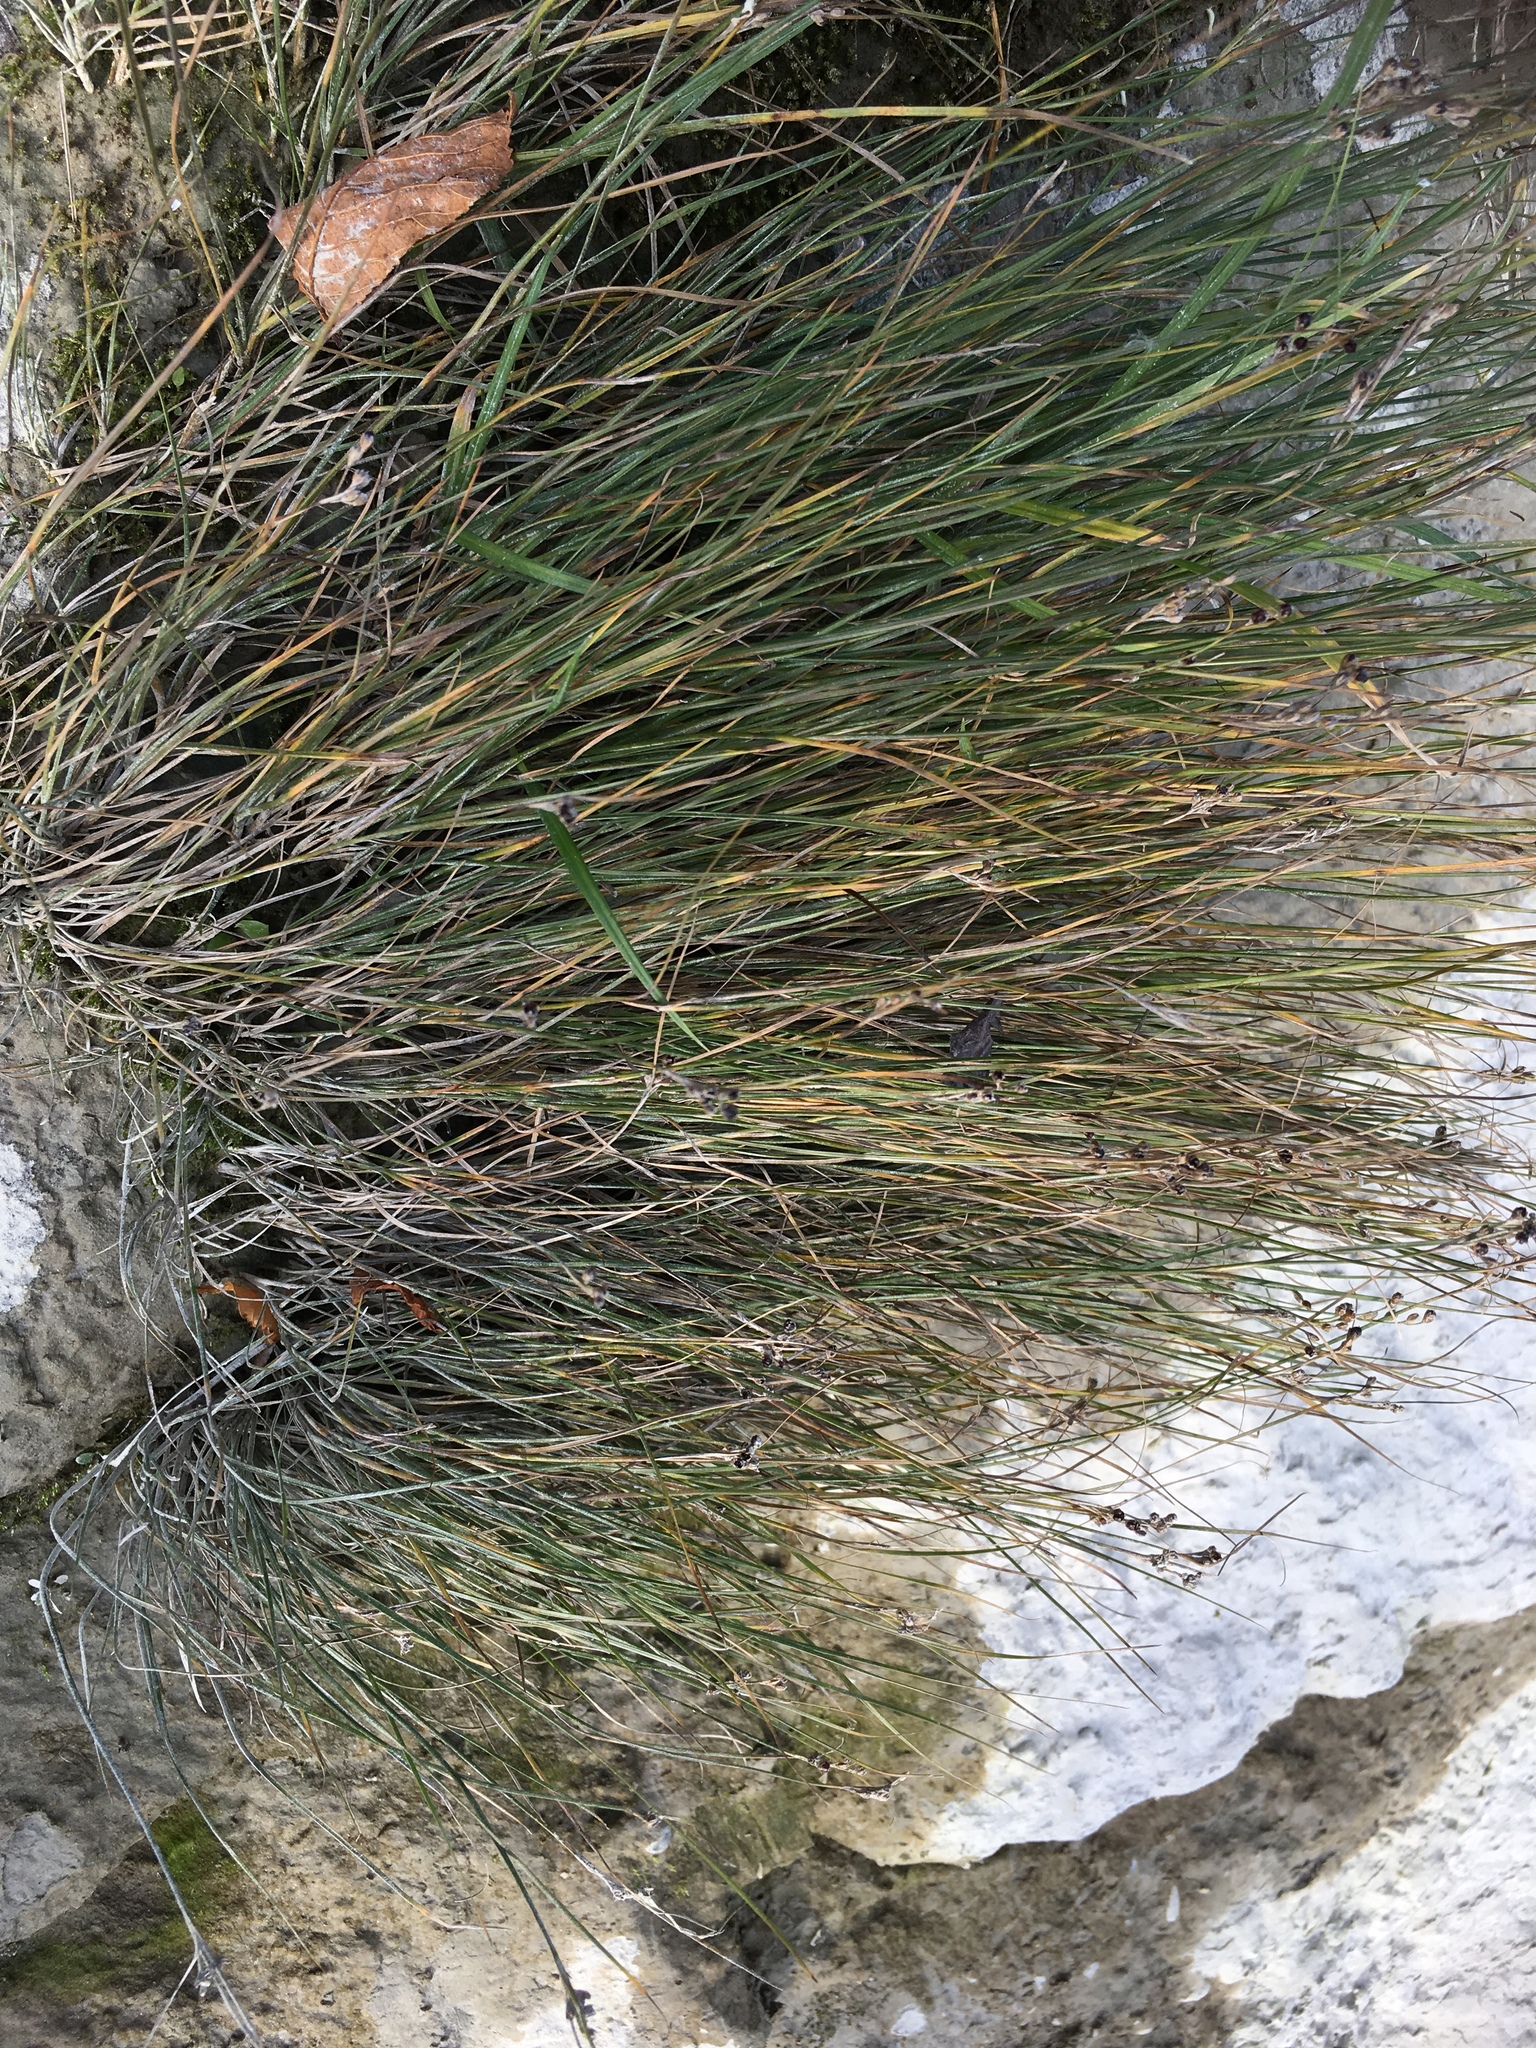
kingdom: Plantae
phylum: Tracheophyta
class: Liliopsida
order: Poales
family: Juncaceae
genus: Juncus
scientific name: Juncus compressus
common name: Round-fruited rush
